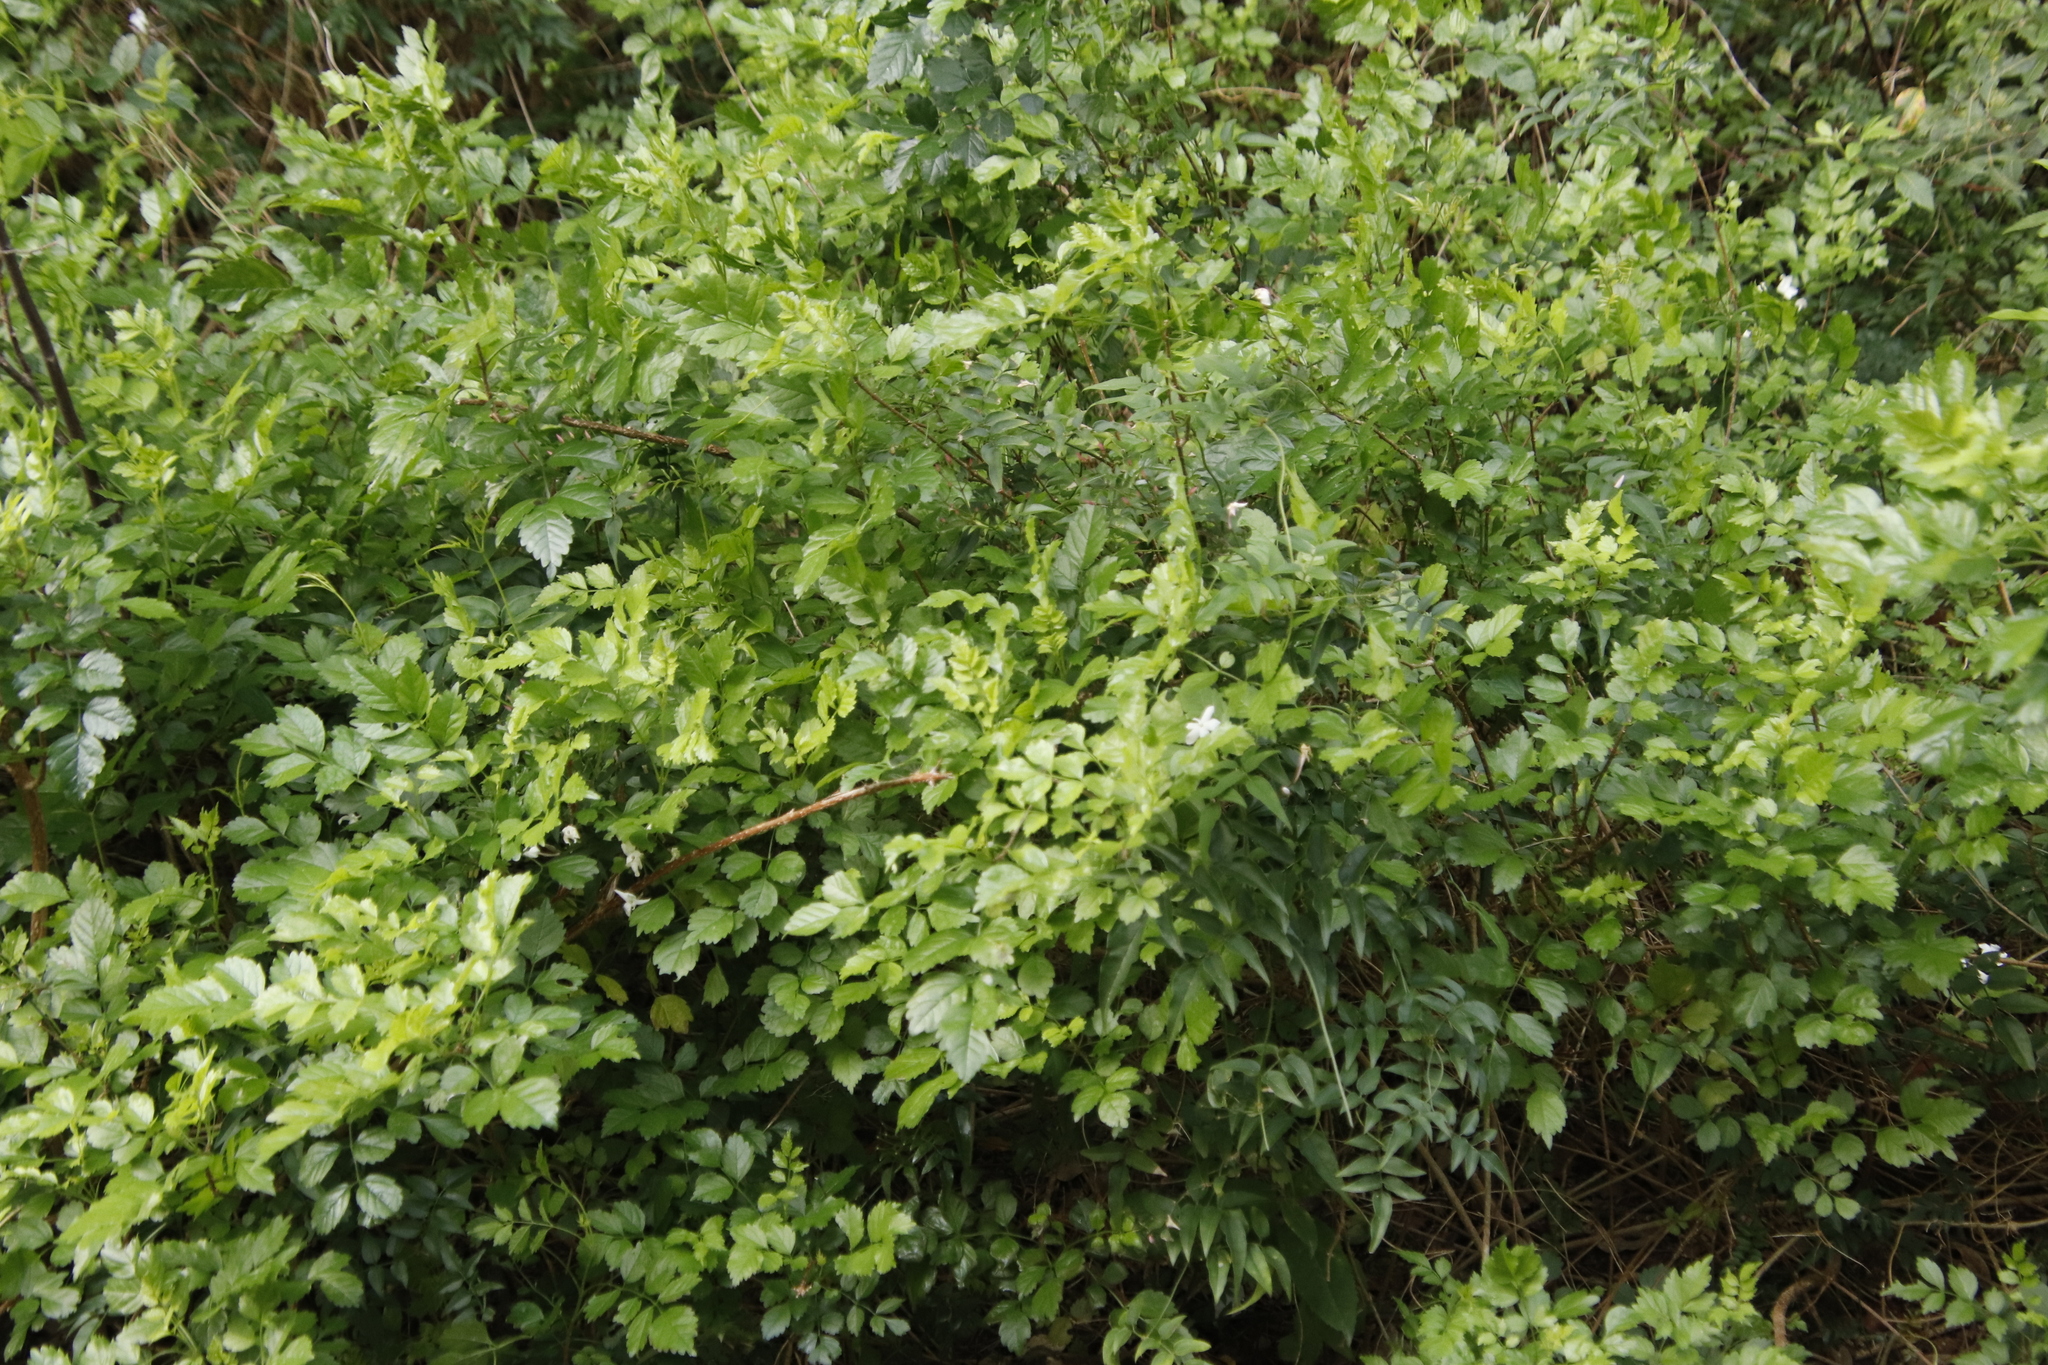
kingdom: Plantae
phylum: Tracheophyta
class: Magnoliopsida
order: Lamiales
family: Bignoniaceae
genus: Tecomaria
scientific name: Tecomaria capensis
